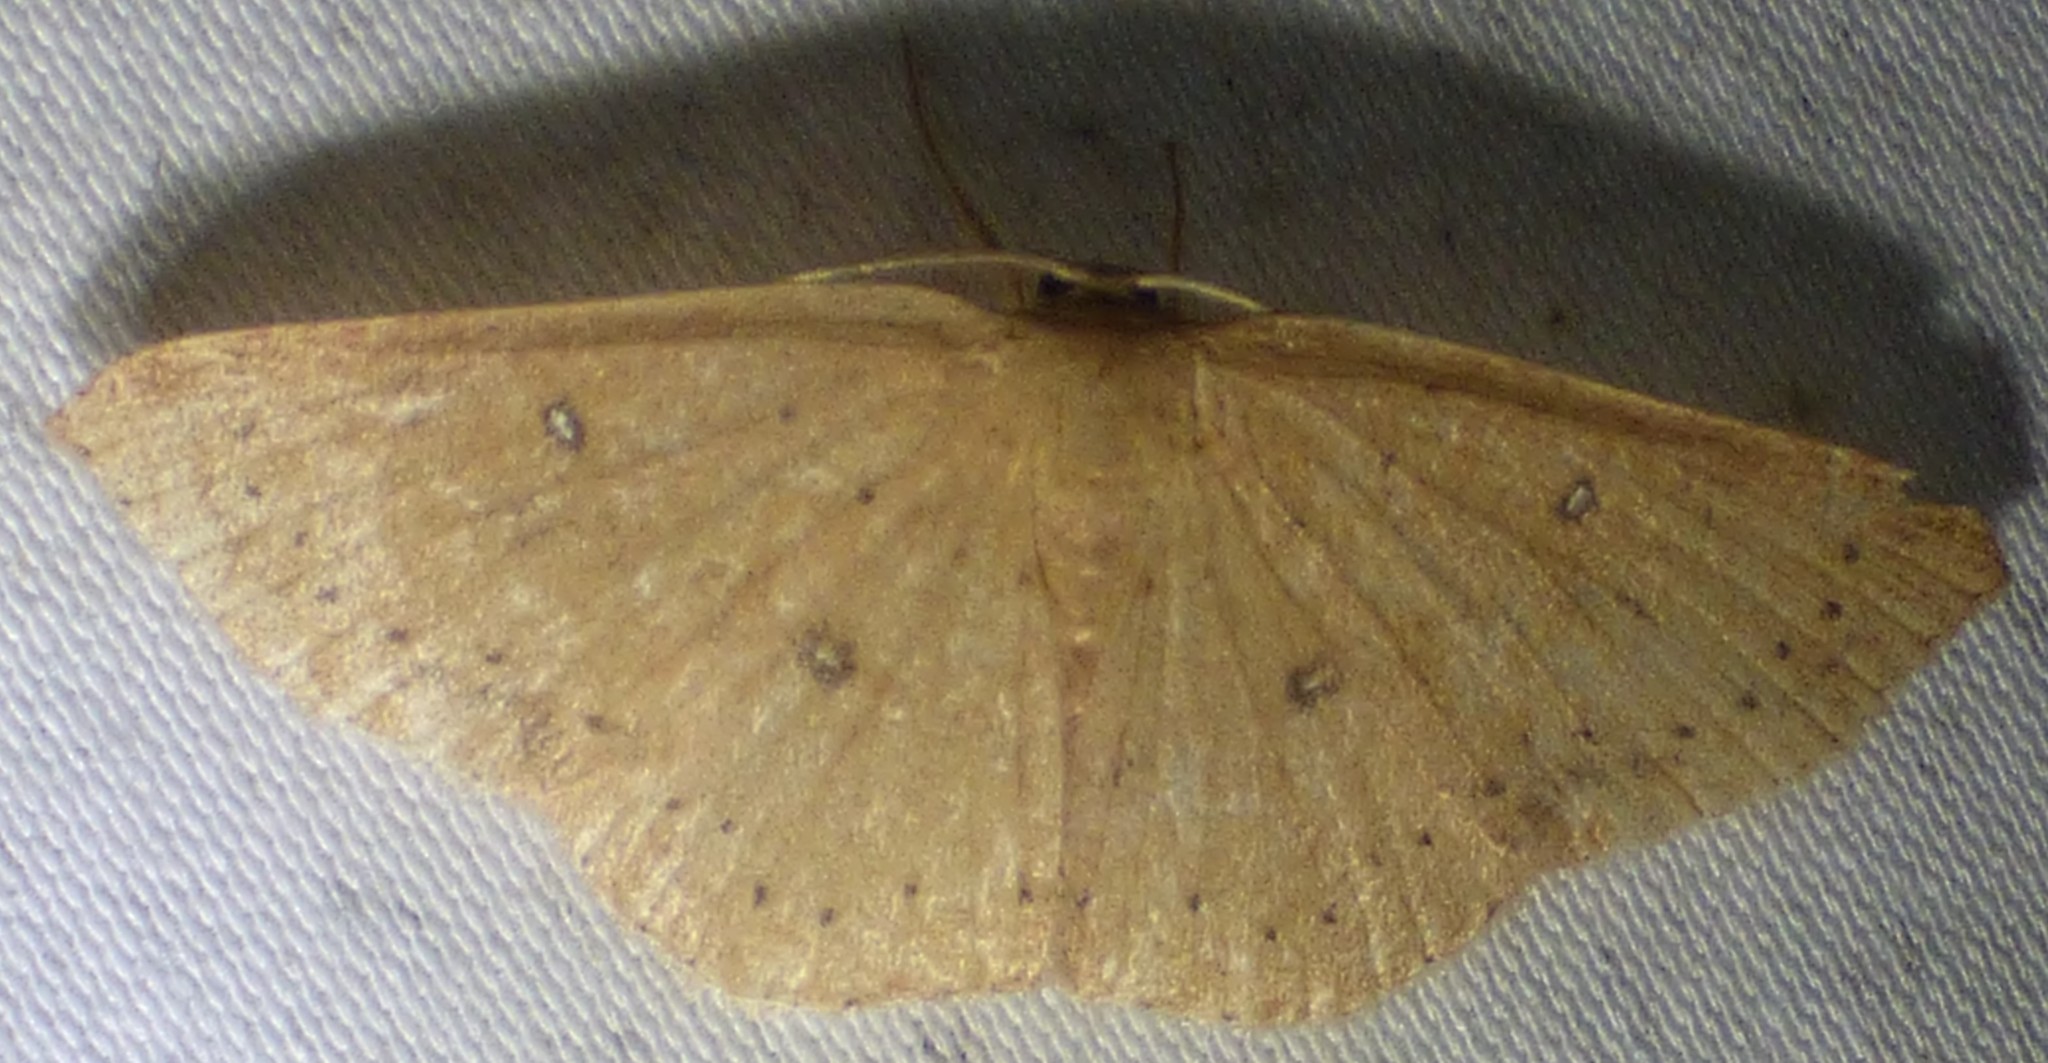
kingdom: Animalia
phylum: Arthropoda
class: Insecta
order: Lepidoptera
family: Geometridae
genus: Cyclophora
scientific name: Cyclophora packardi
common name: Packard's wave
